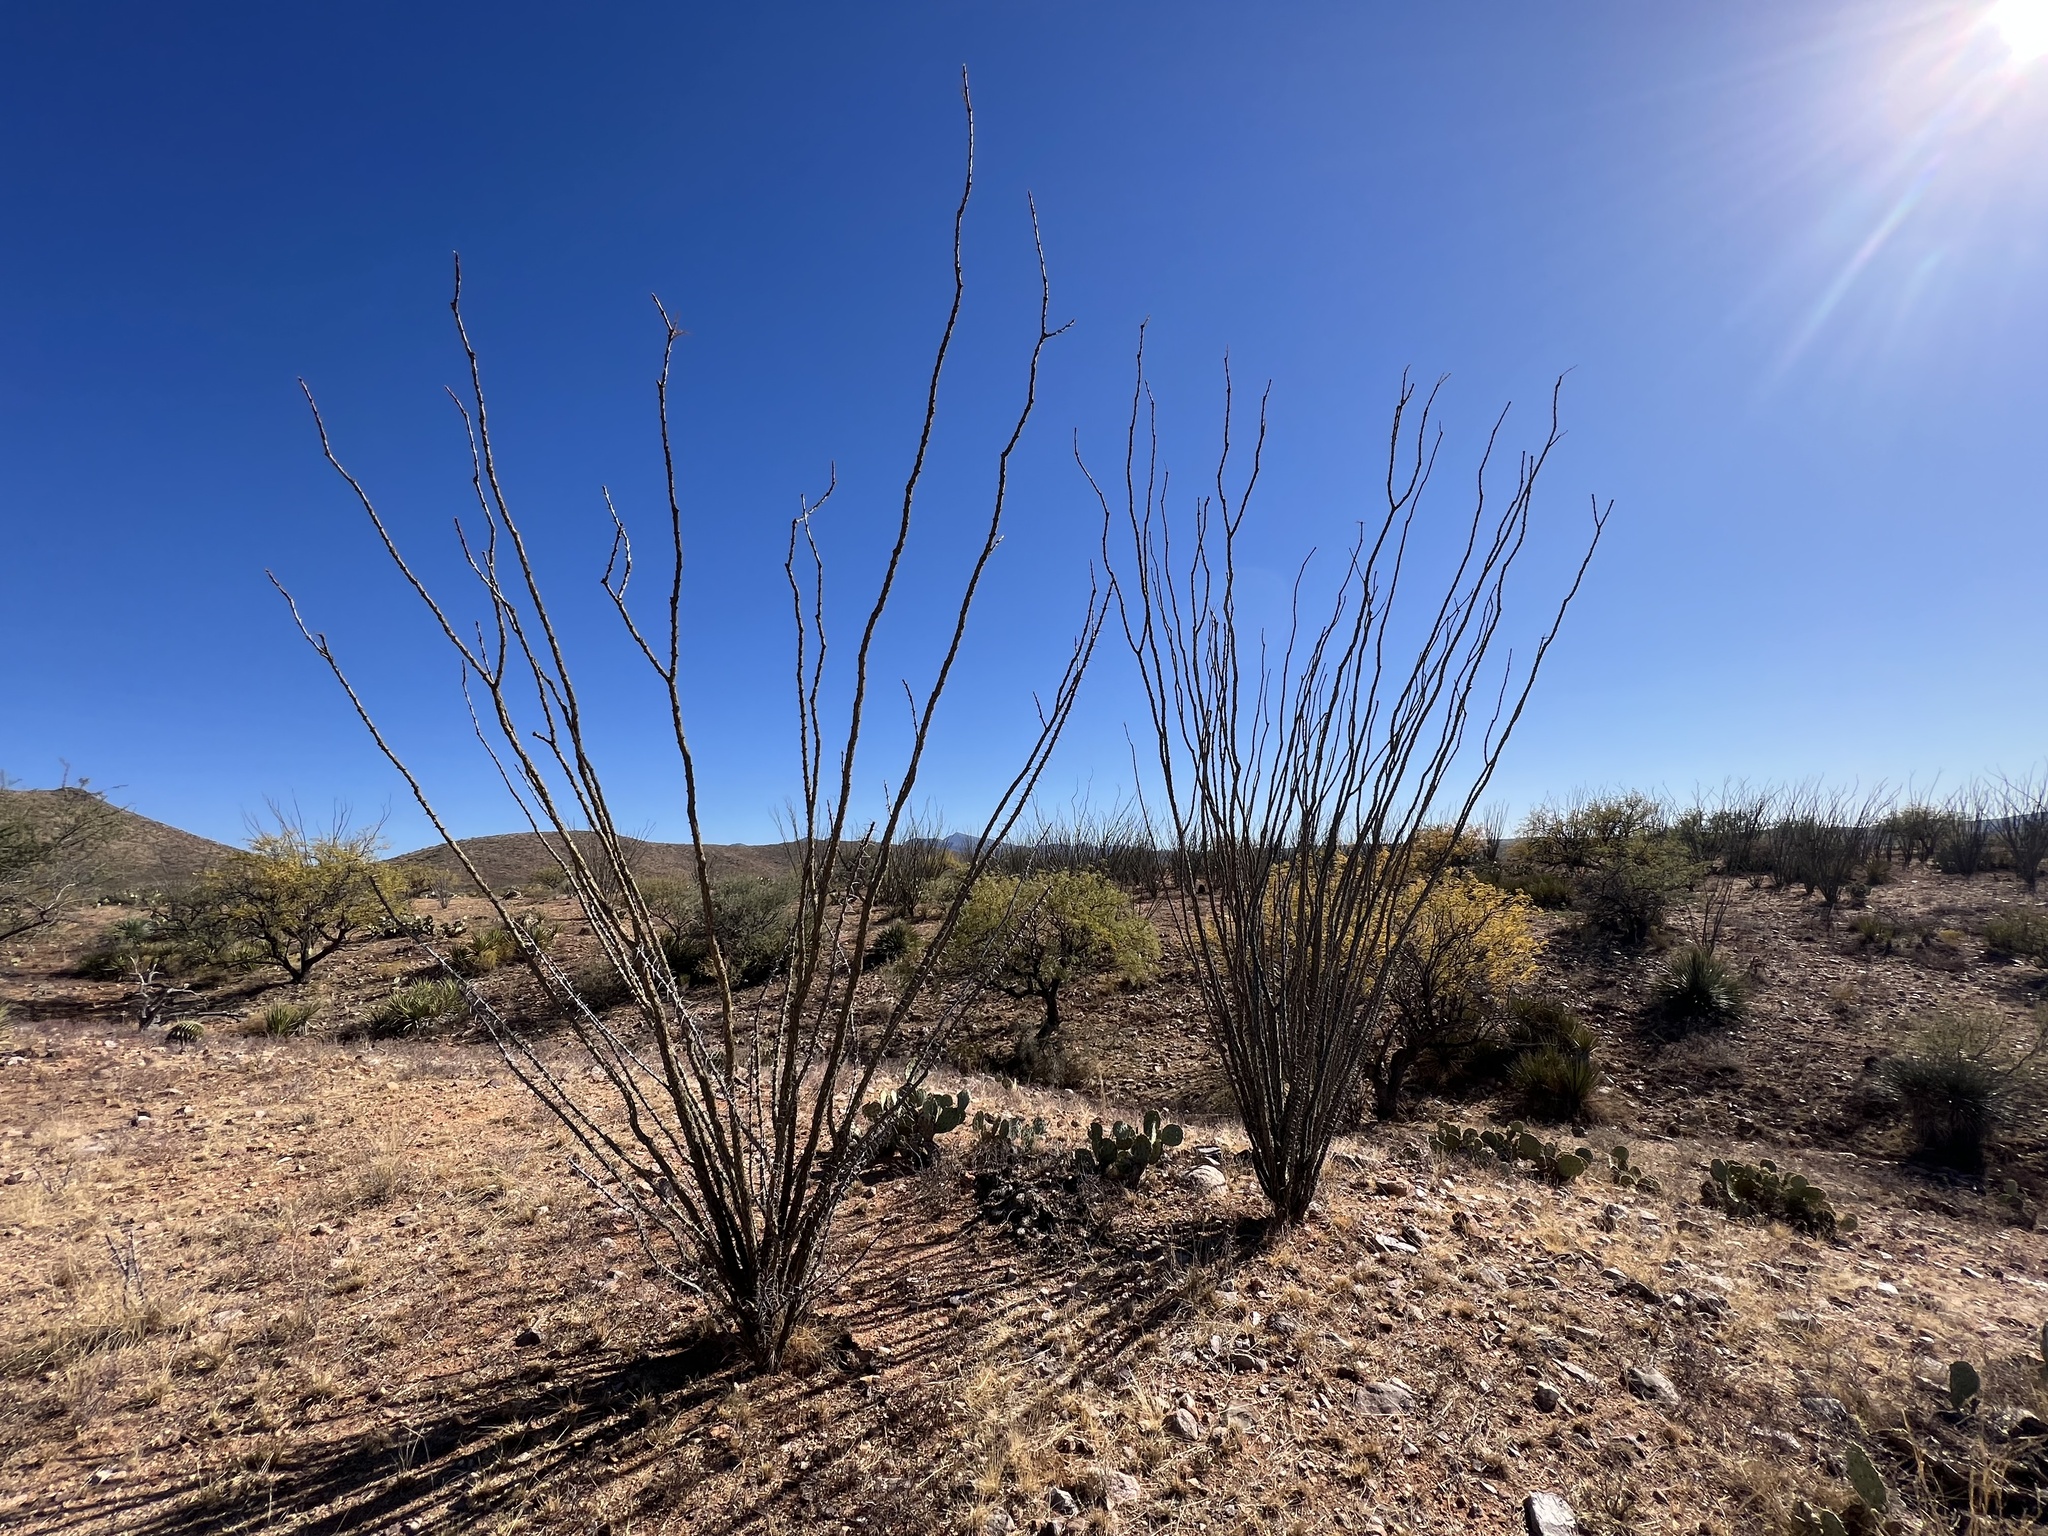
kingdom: Plantae
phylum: Tracheophyta
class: Magnoliopsida
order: Ericales
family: Fouquieriaceae
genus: Fouquieria
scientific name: Fouquieria splendens
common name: Vine-cactus
